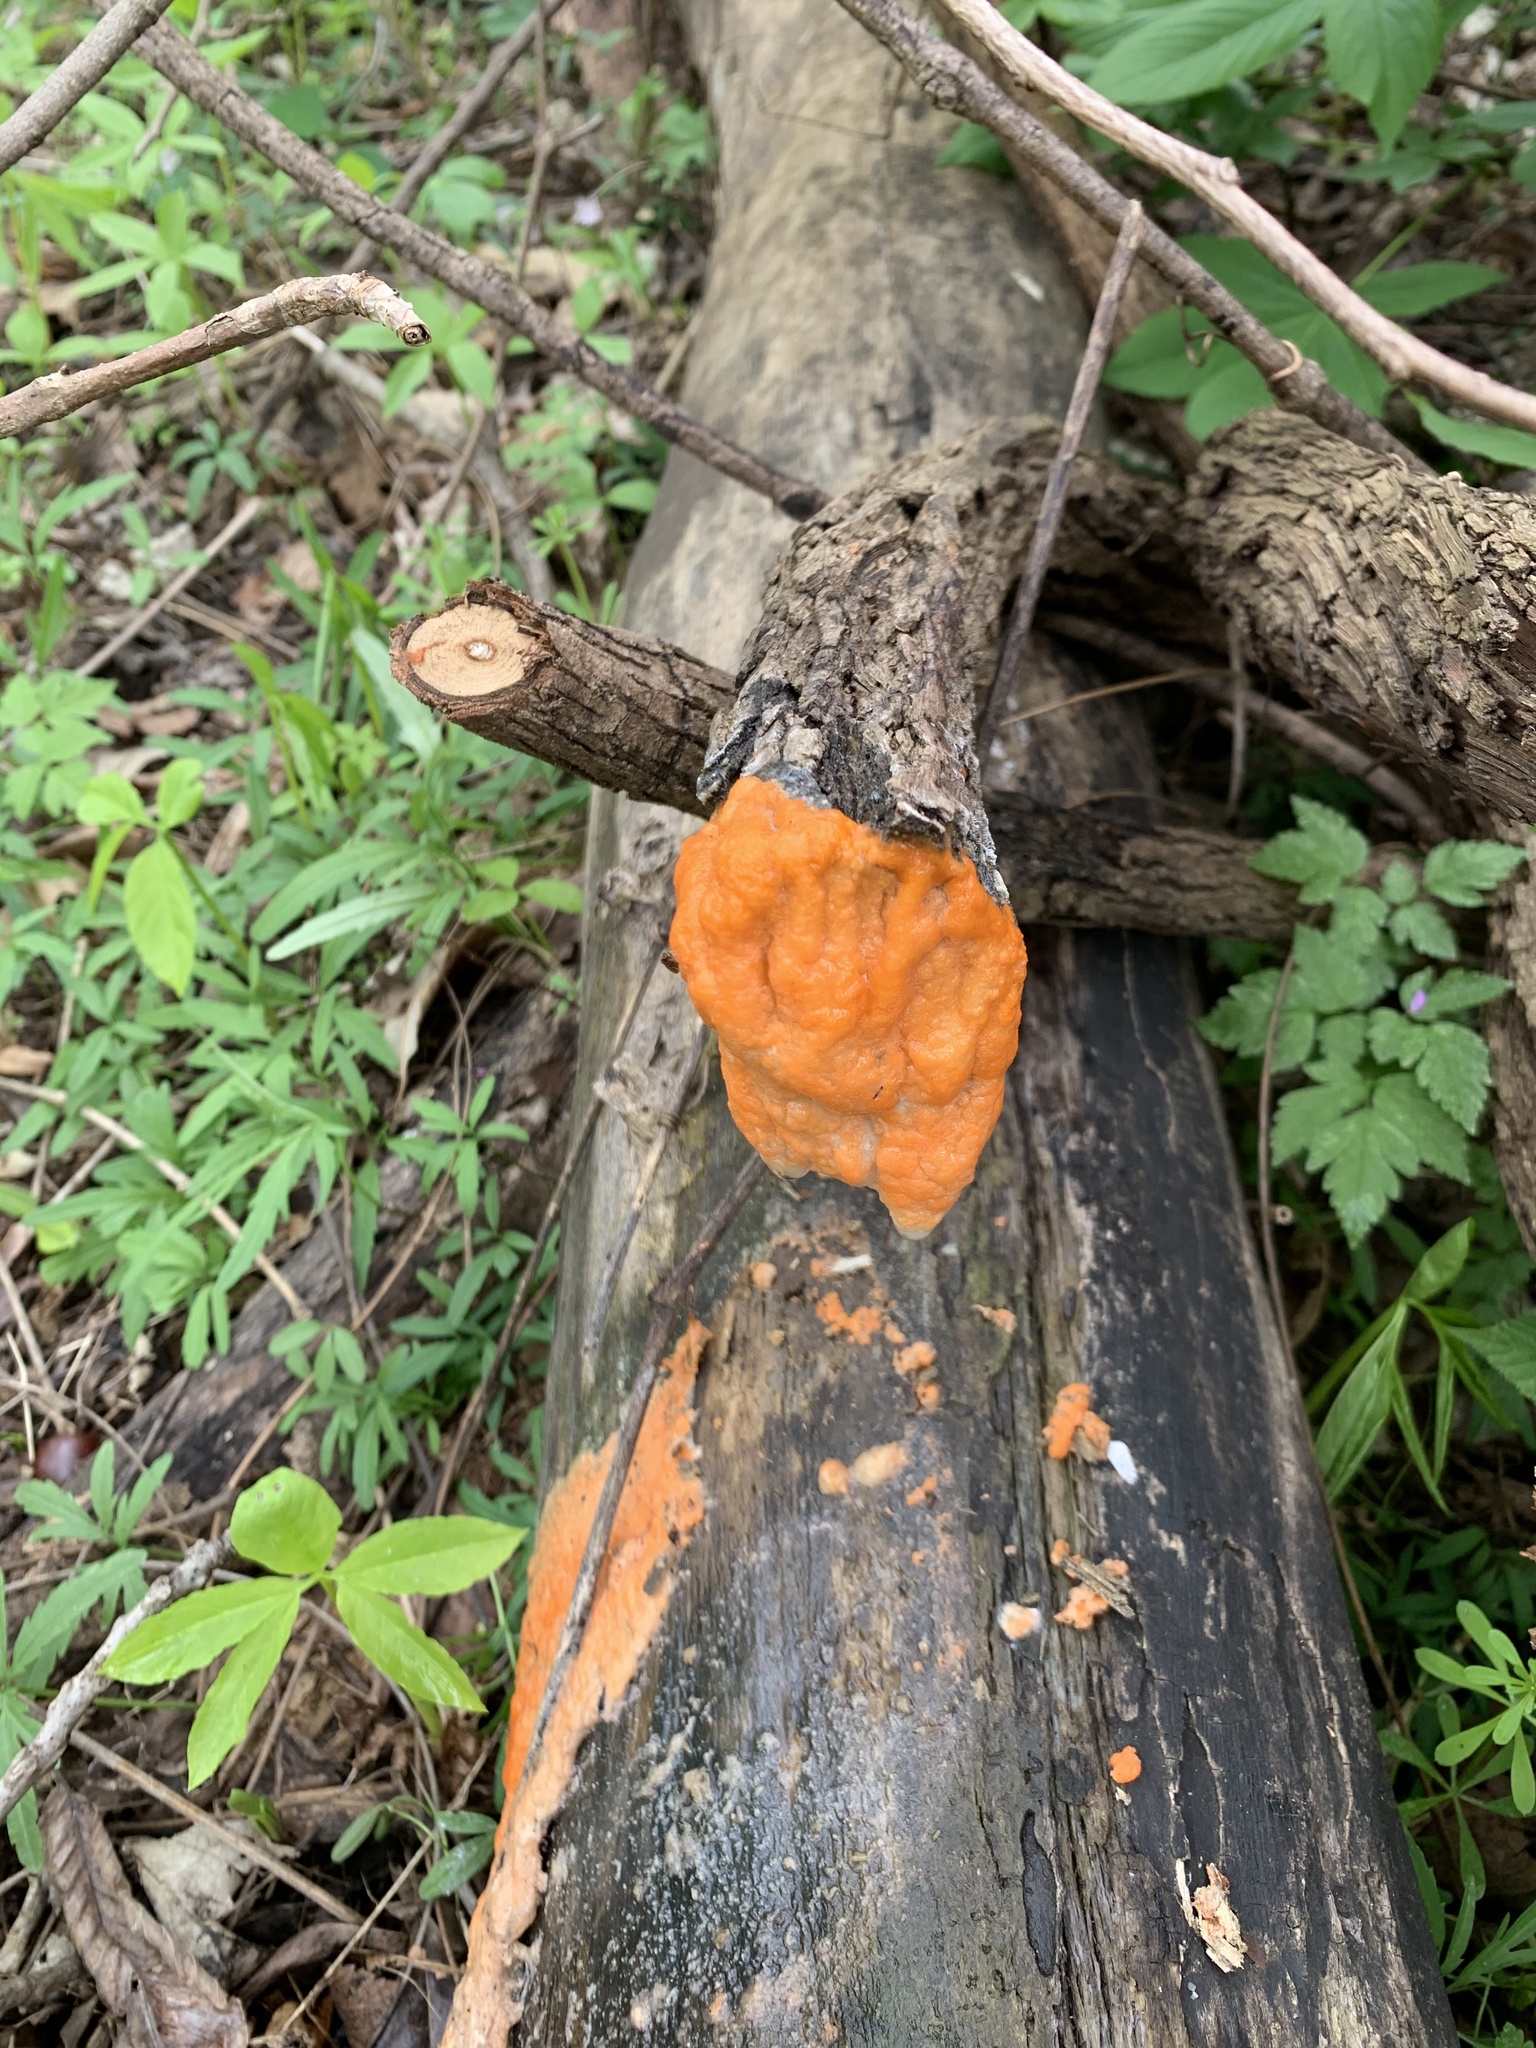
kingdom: Fungi
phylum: Ascomycota
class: Sordariomycetes
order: Hypocreales
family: Nectriaceae
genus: Fusicolla
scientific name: Fusicolla merismoides
